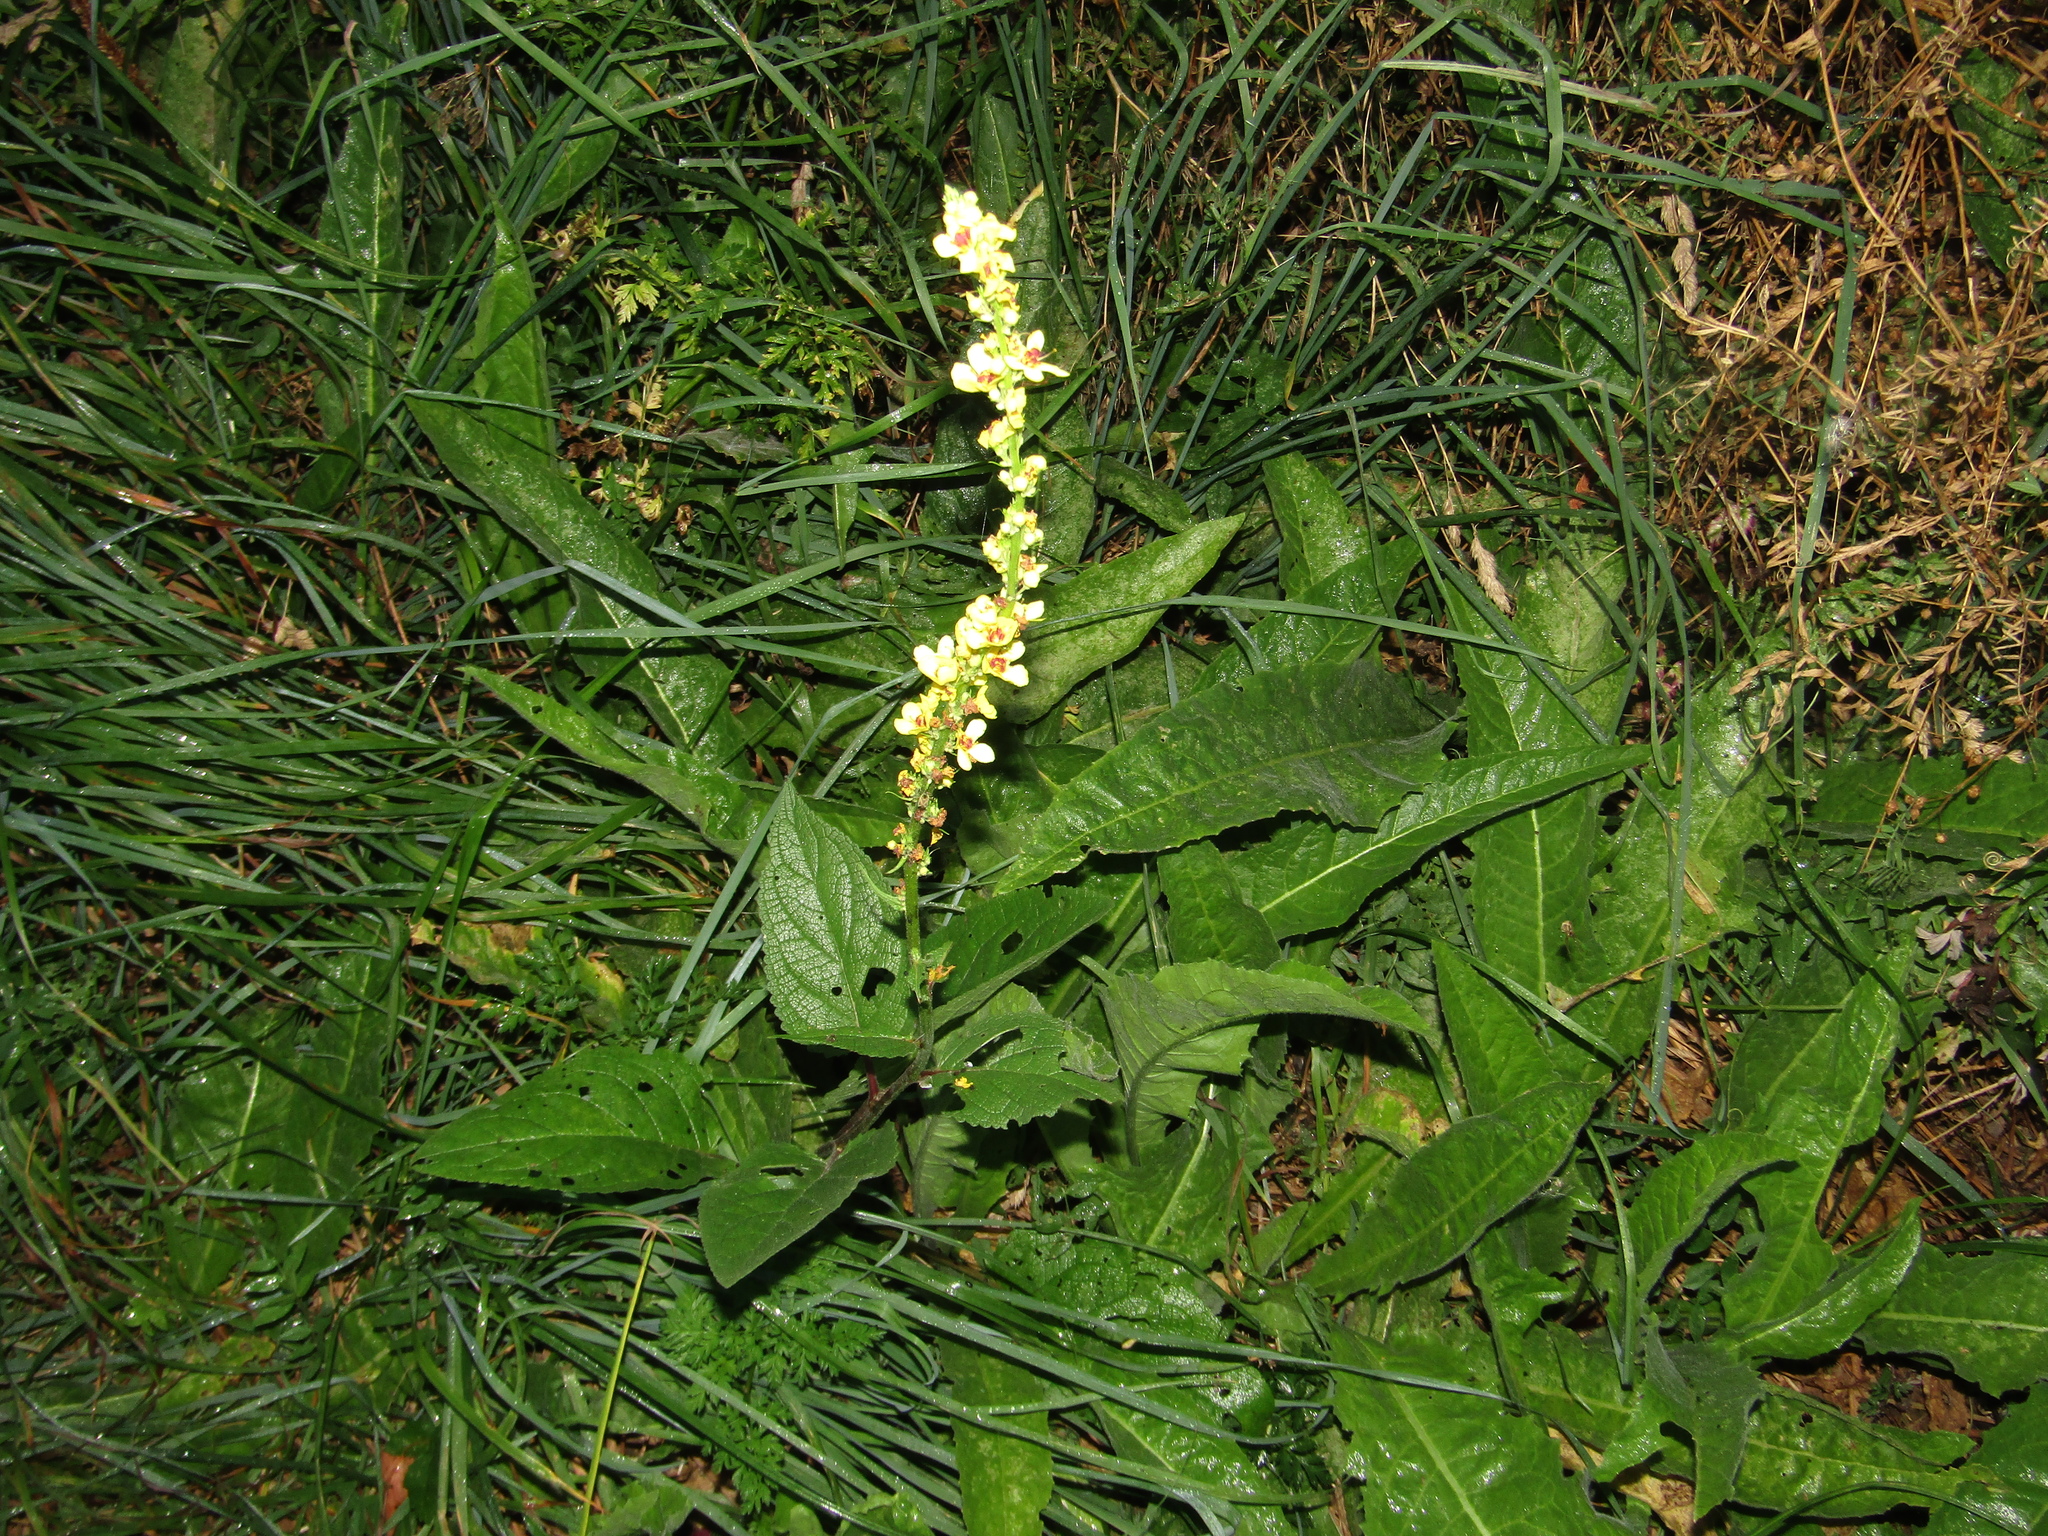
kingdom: Plantae
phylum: Tracheophyta
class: Magnoliopsida
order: Lamiales
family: Scrophulariaceae
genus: Verbascum
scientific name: Verbascum nigrum
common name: Dark mullein
